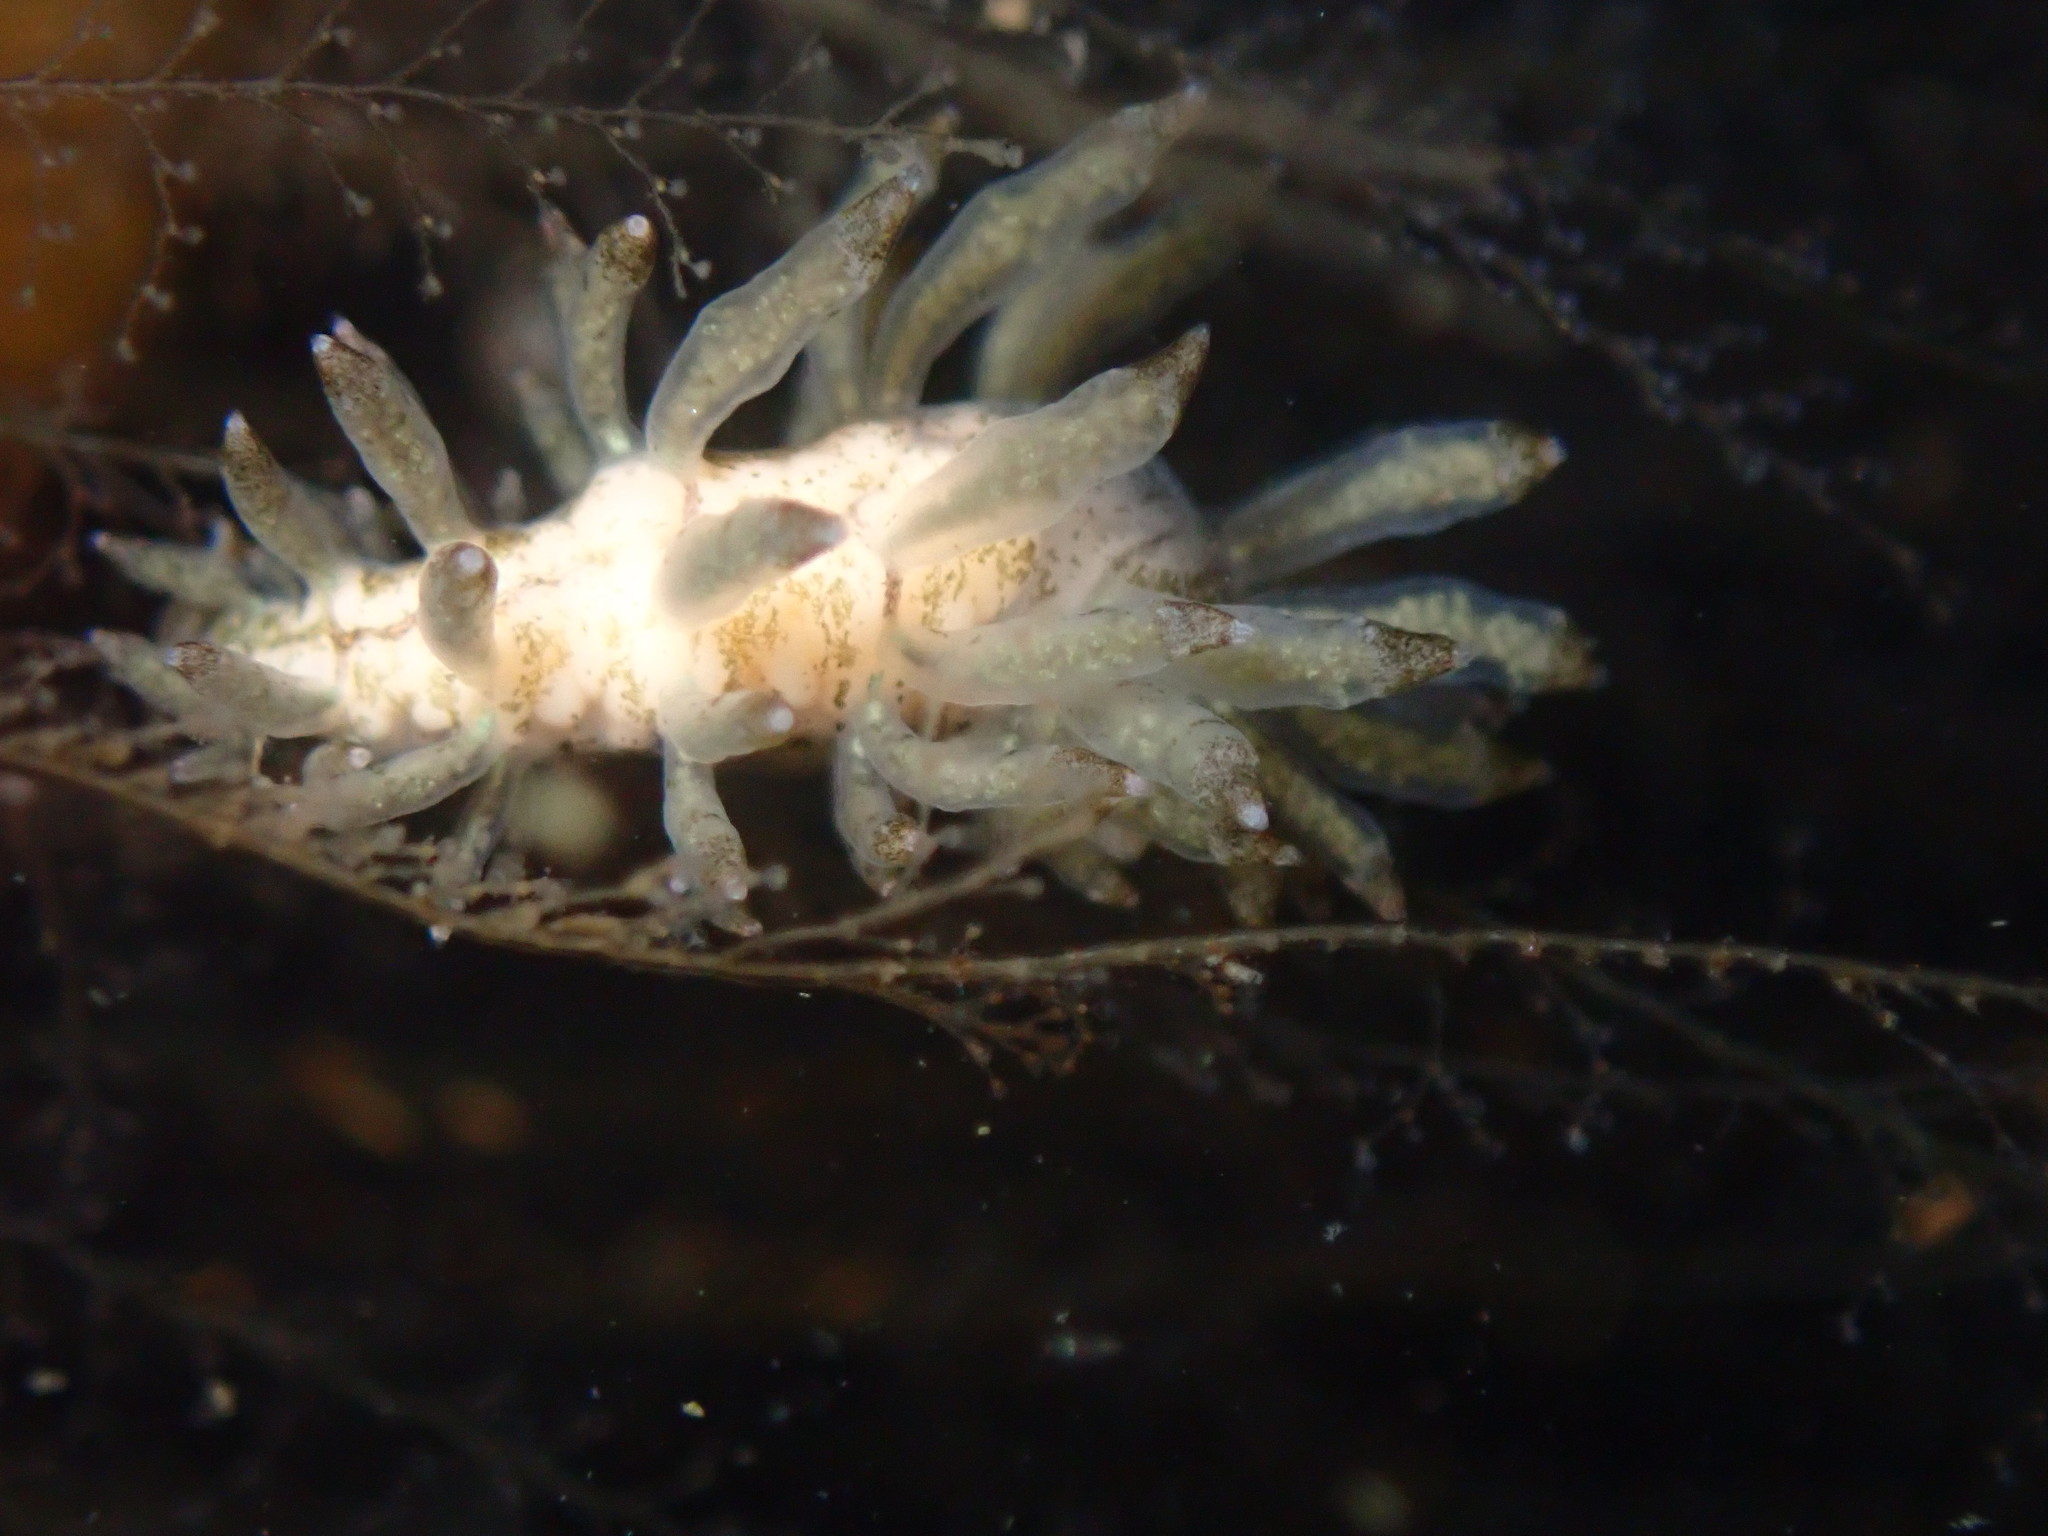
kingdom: Animalia
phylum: Mollusca
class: Gastropoda
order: Nudibranchia
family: Eubranchidae
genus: Eubranchus
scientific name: Eubranchus rustyus
